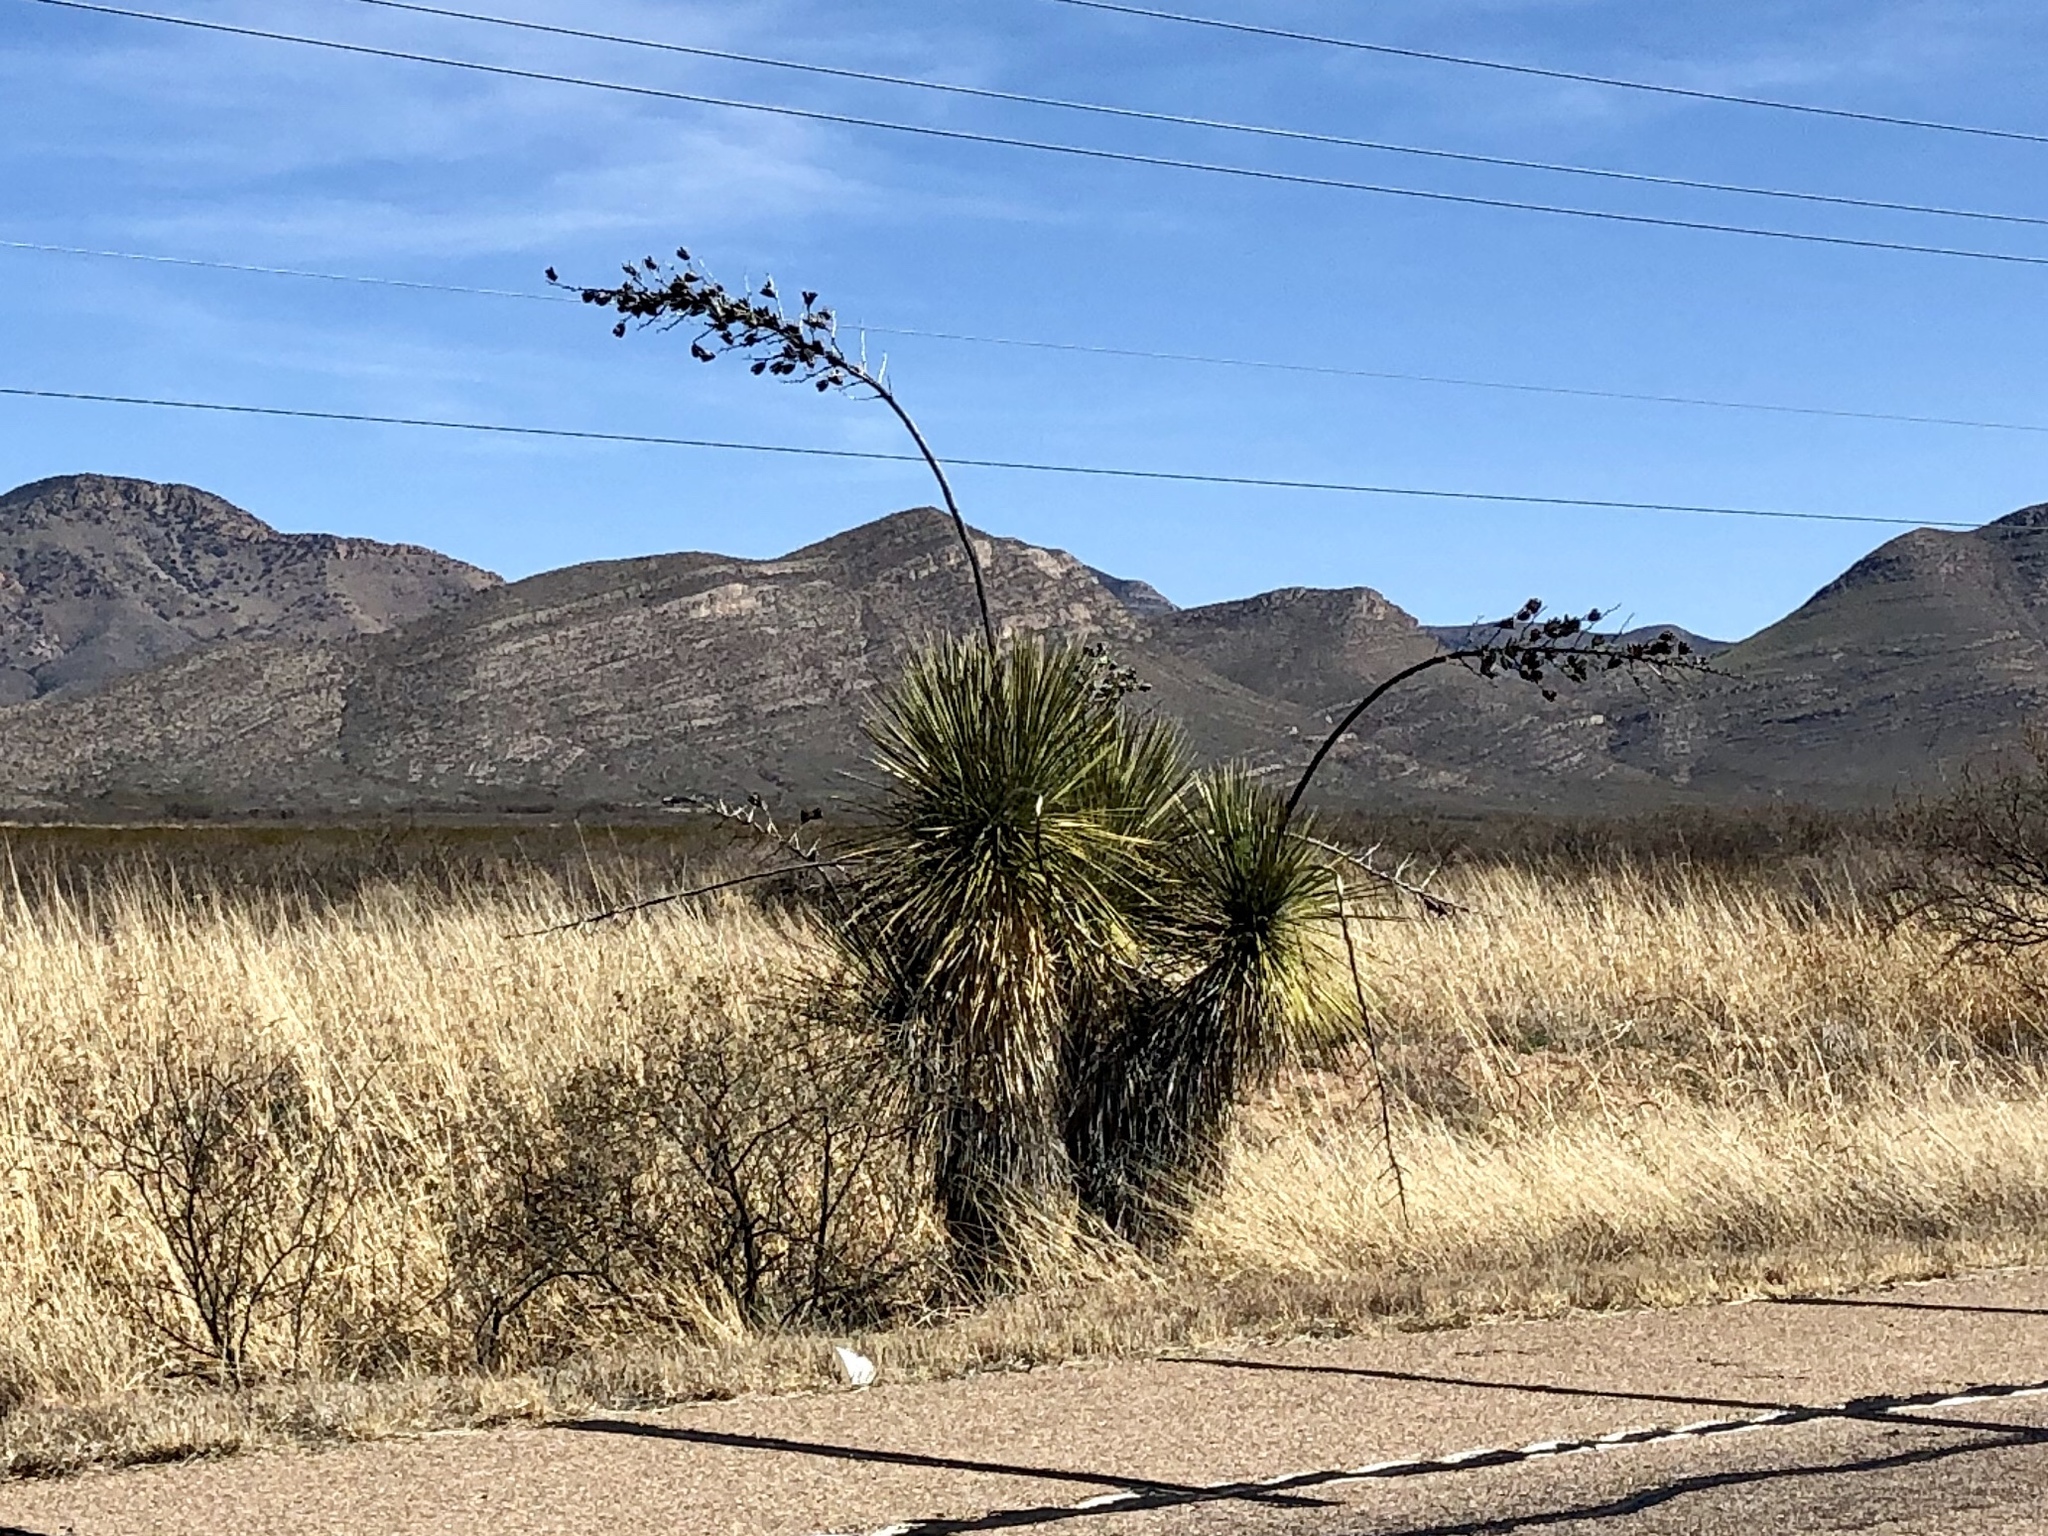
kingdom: Plantae
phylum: Tracheophyta
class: Liliopsida
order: Asparagales
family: Asparagaceae
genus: Yucca
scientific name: Yucca elata
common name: Palmella
